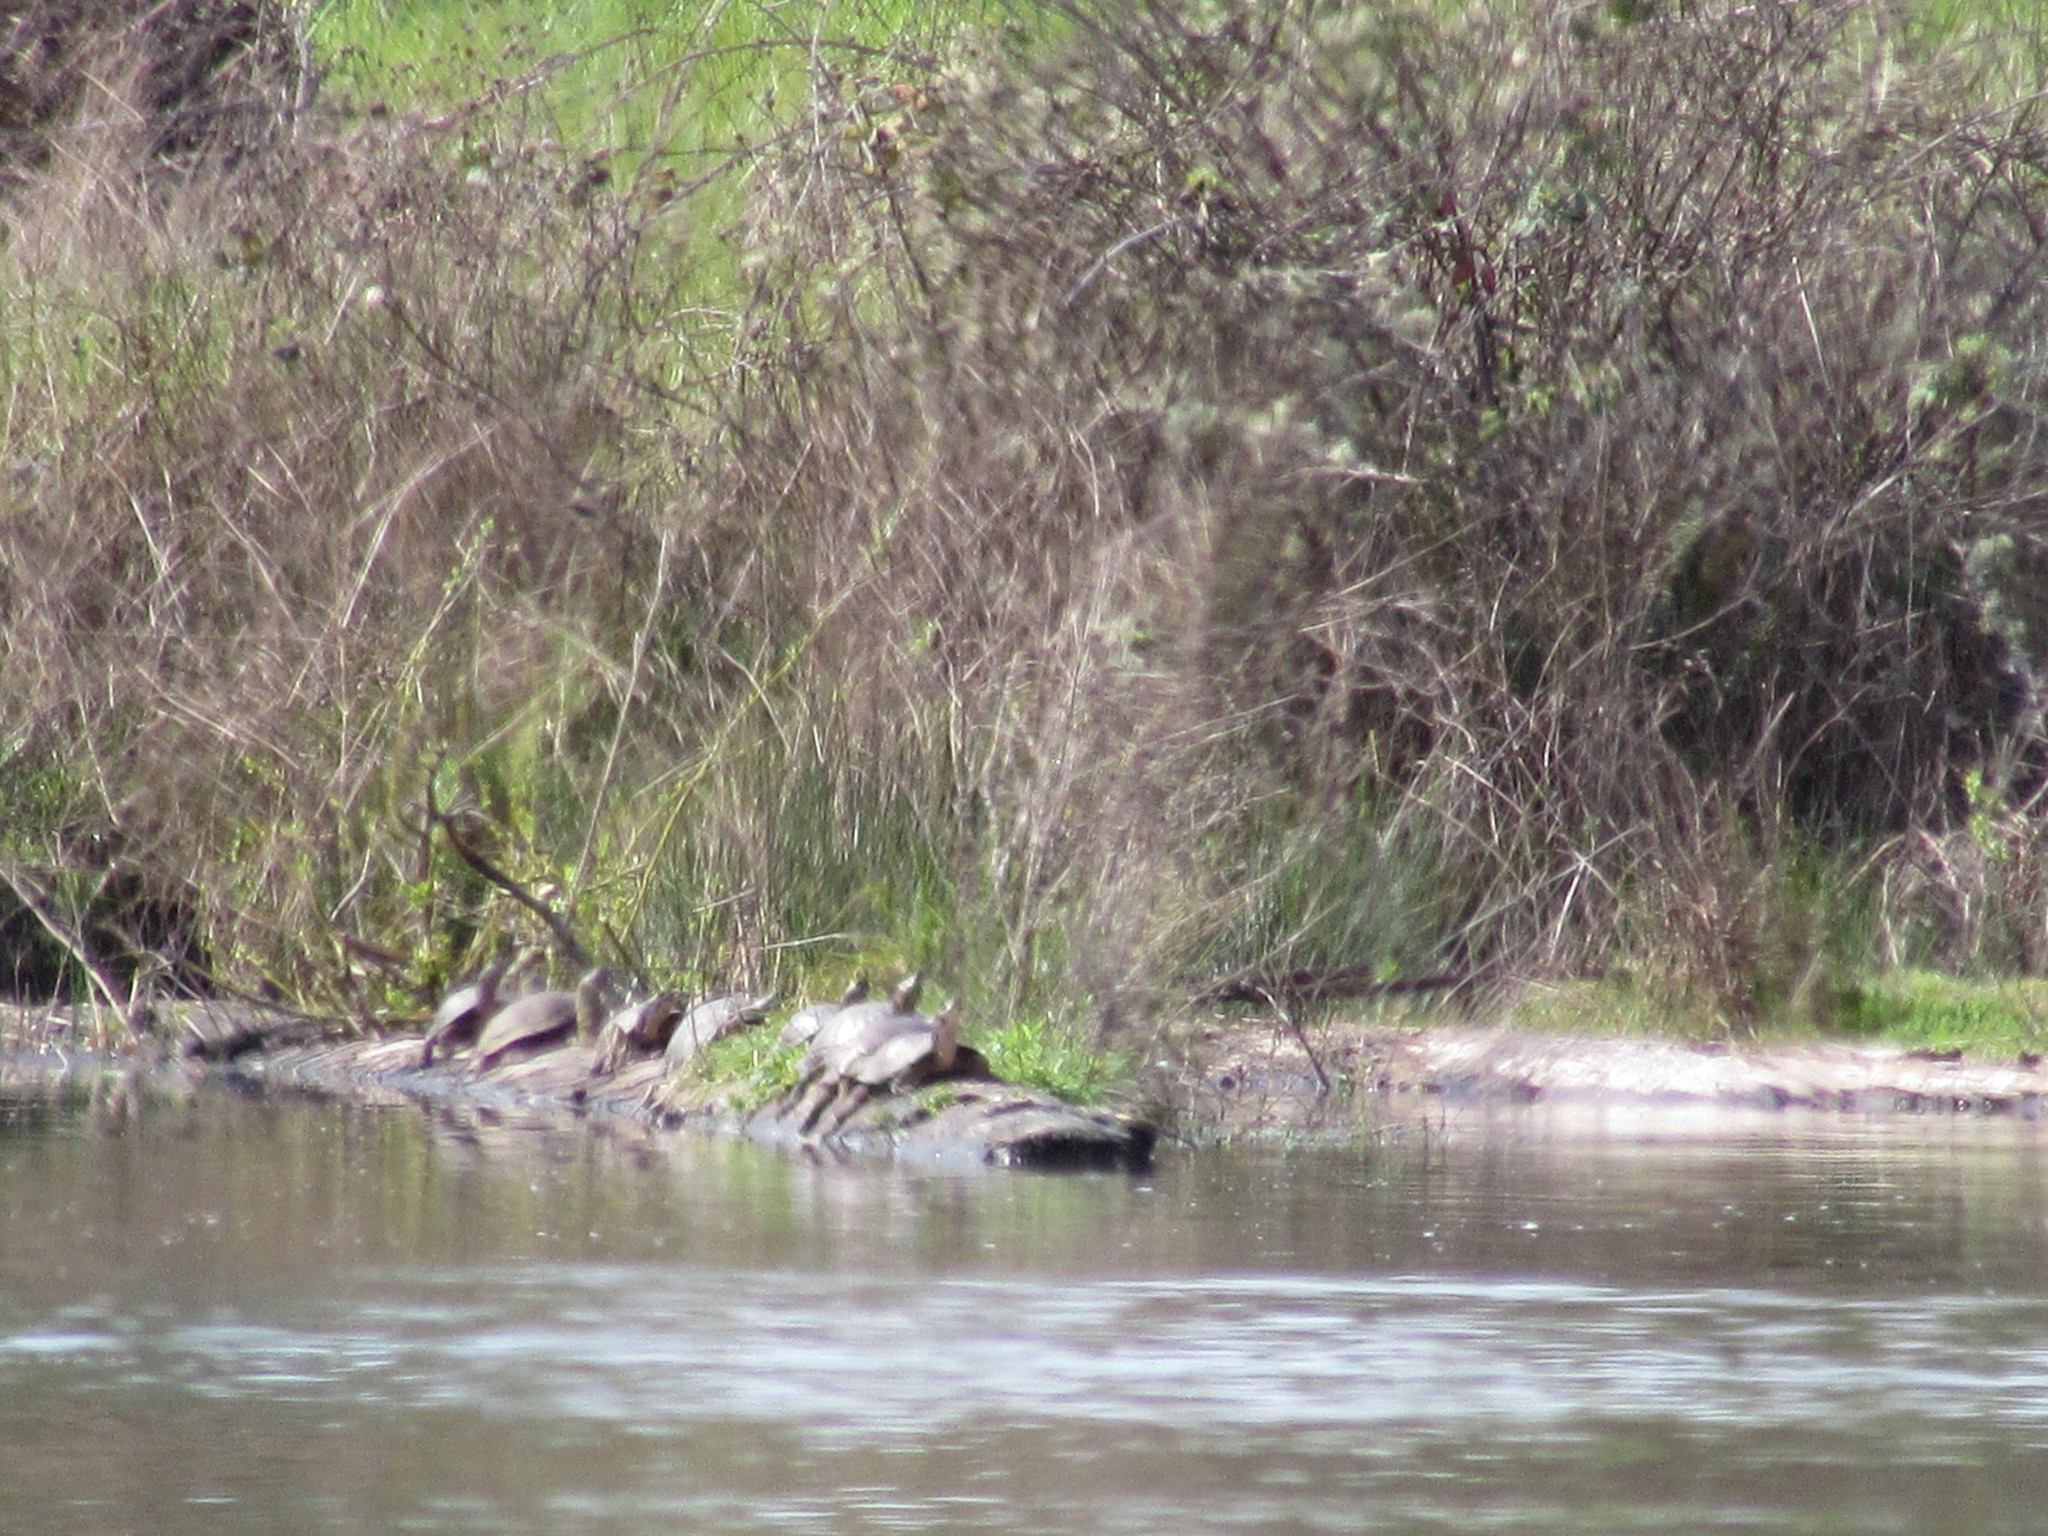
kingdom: Animalia
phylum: Chordata
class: Testudines
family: Emydidae
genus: Actinemys
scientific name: Actinemys marmorata
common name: Western pond turtle
